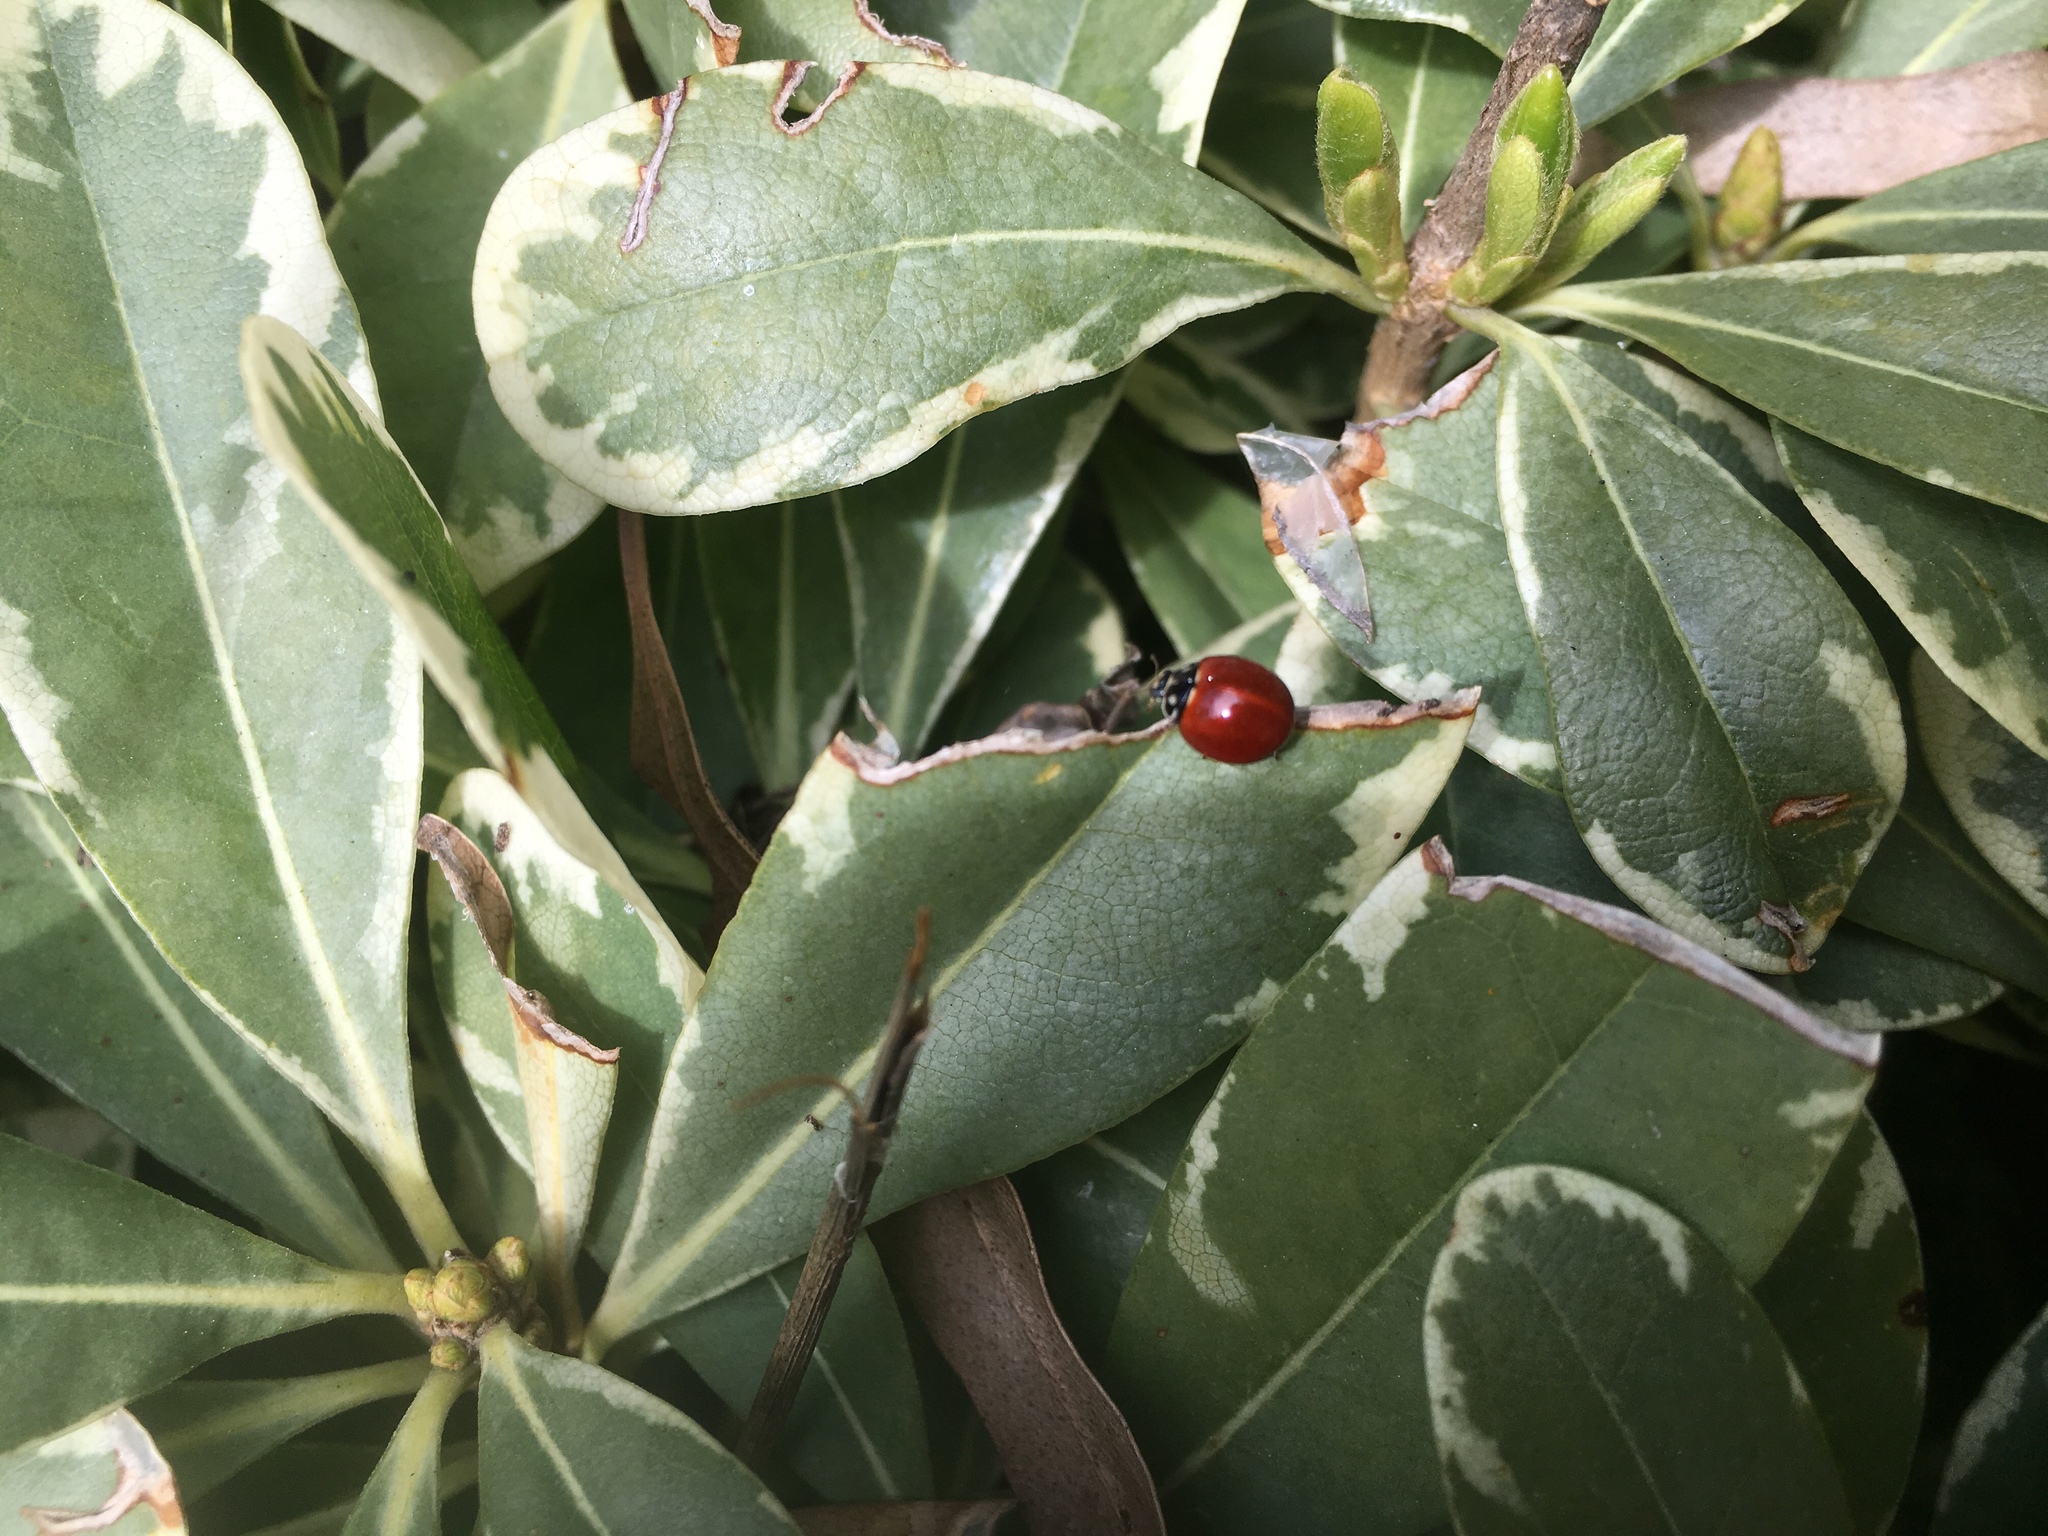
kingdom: Animalia
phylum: Arthropoda
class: Insecta
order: Coleoptera
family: Coccinellidae
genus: Cycloneda
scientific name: Cycloneda sanguinea
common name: Ladybird beetle
